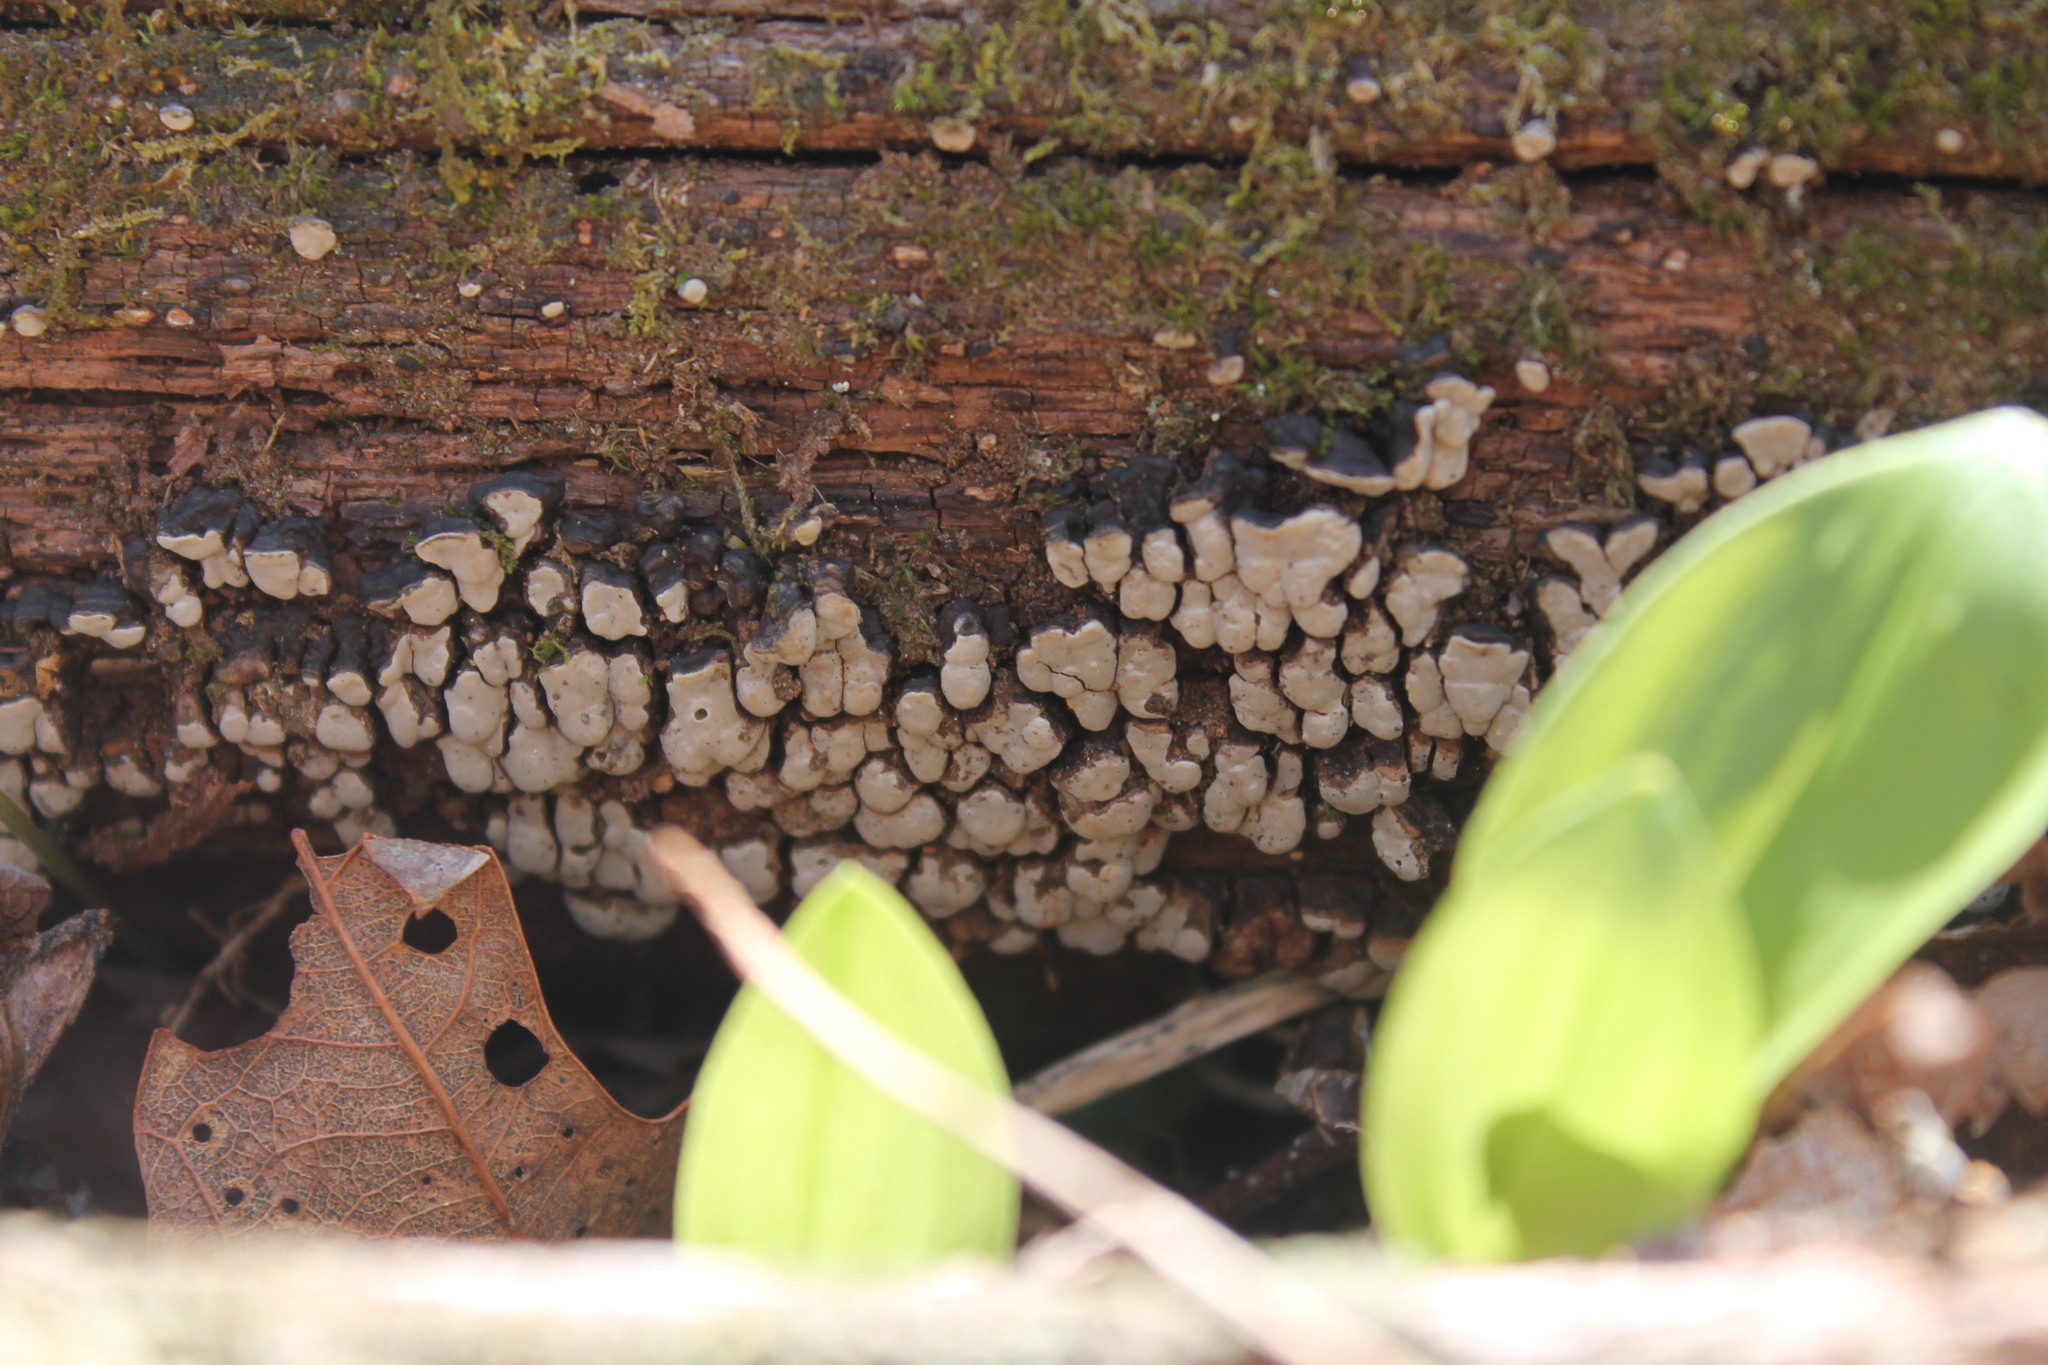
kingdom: Fungi
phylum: Basidiomycota
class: Agaricomycetes
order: Russulales
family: Stereaceae
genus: Xylobolus
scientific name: Xylobolus frustulatus
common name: Ceramic parchment
